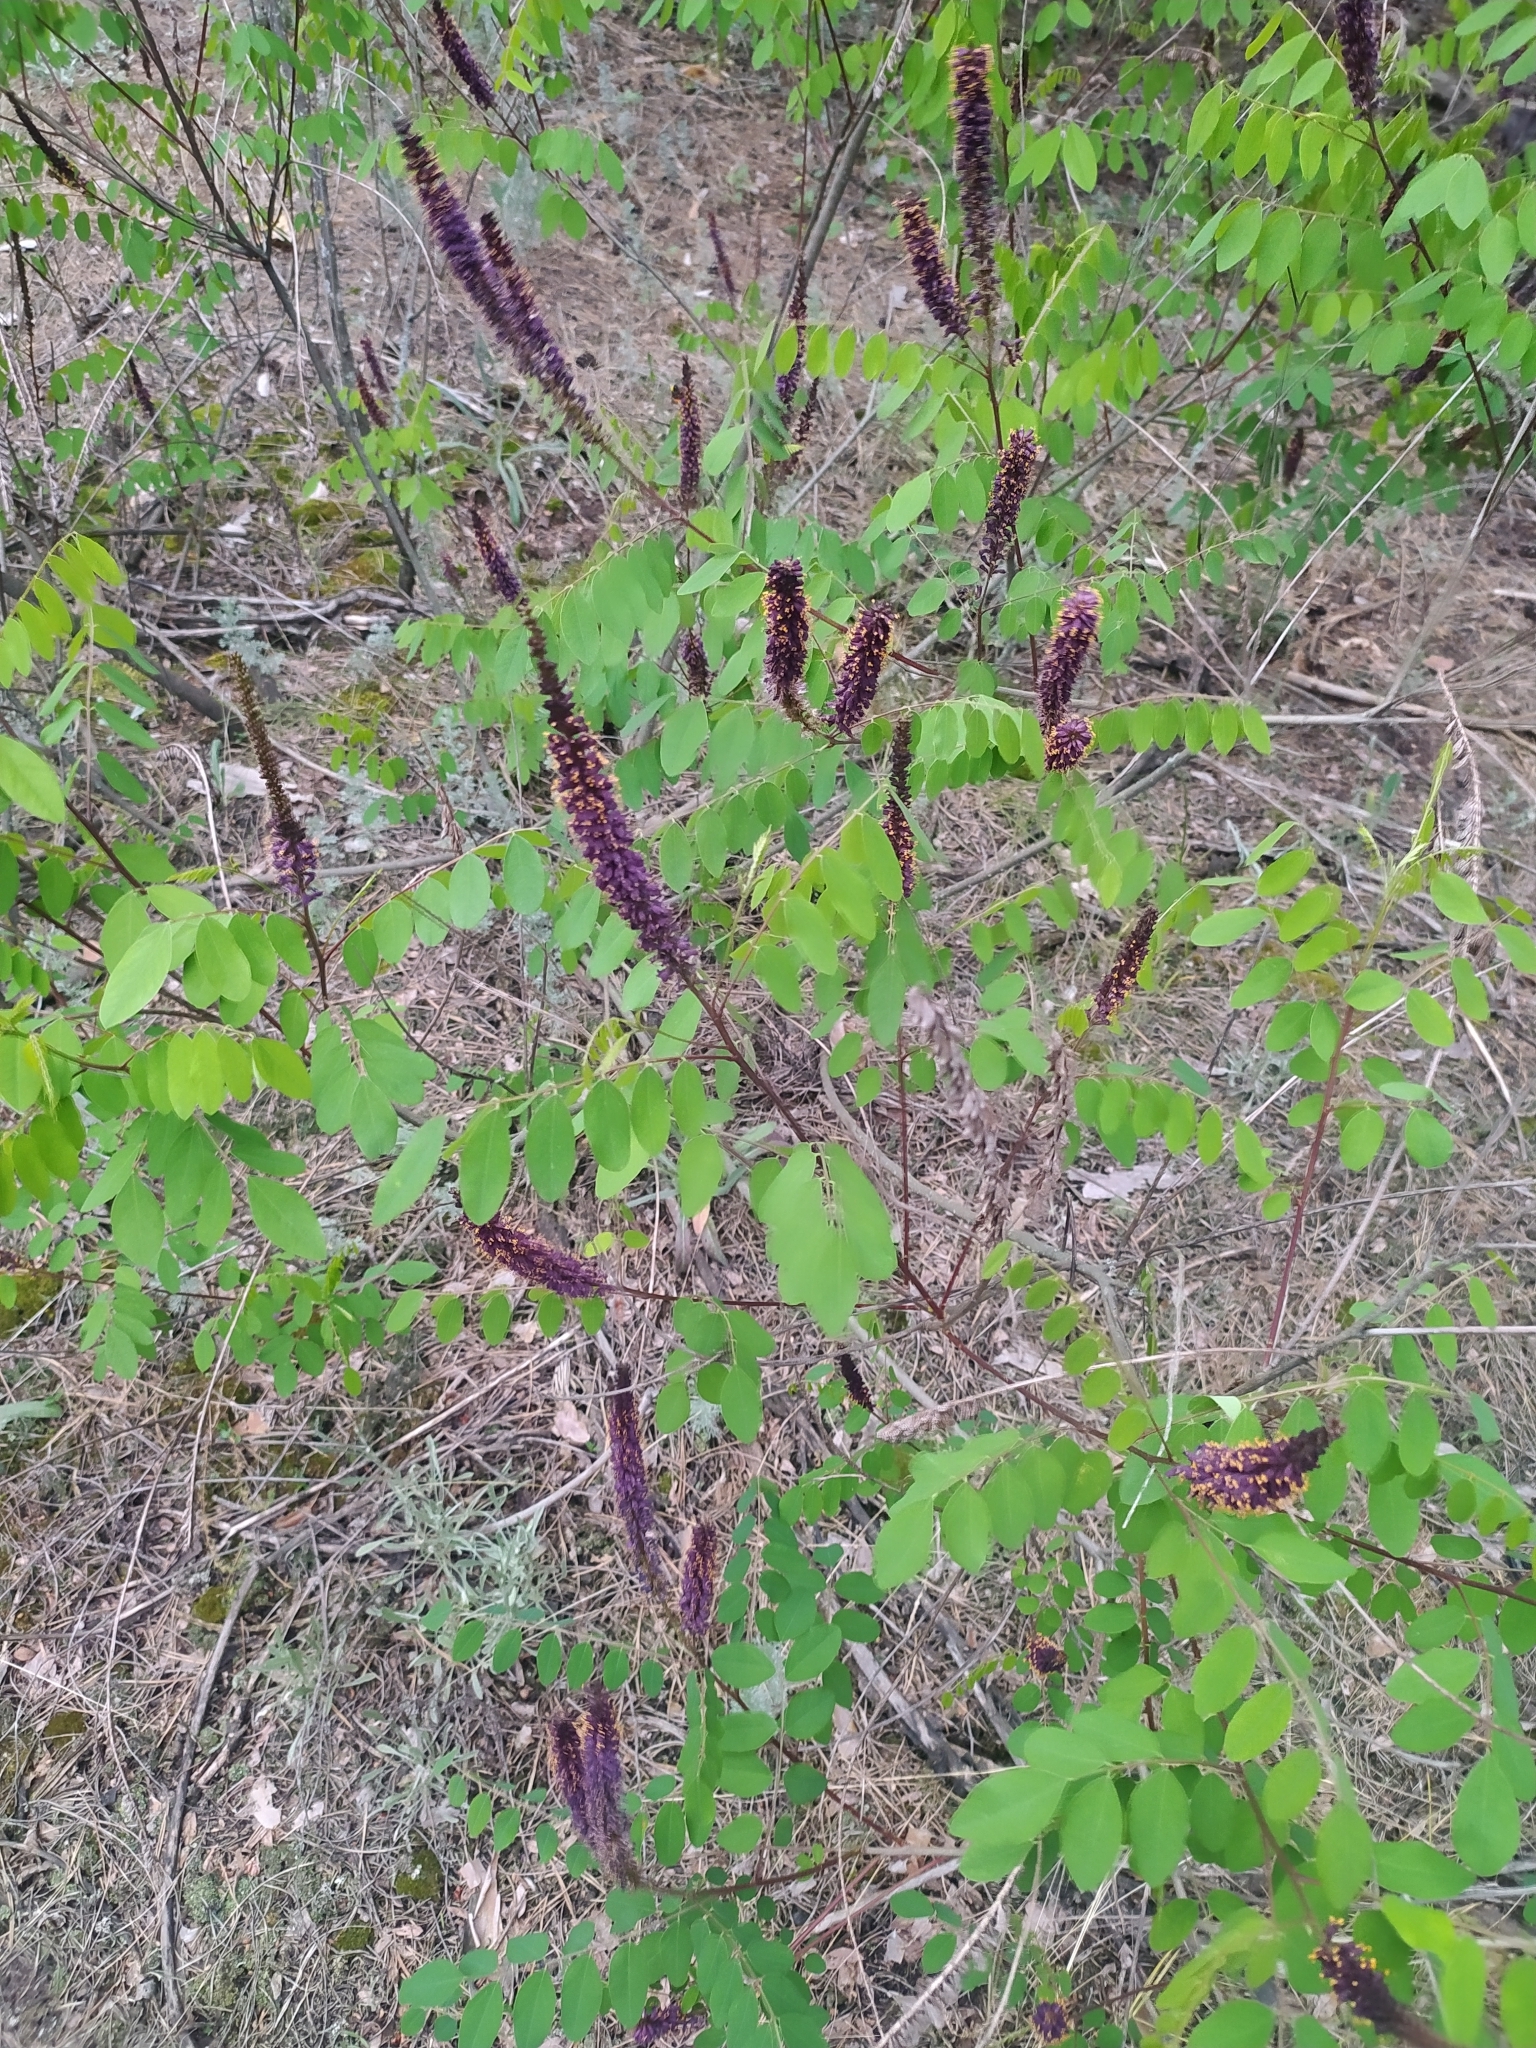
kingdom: Plantae
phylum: Tracheophyta
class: Magnoliopsida
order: Fabales
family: Fabaceae
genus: Amorpha
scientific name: Amorpha fruticosa
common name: False indigo
